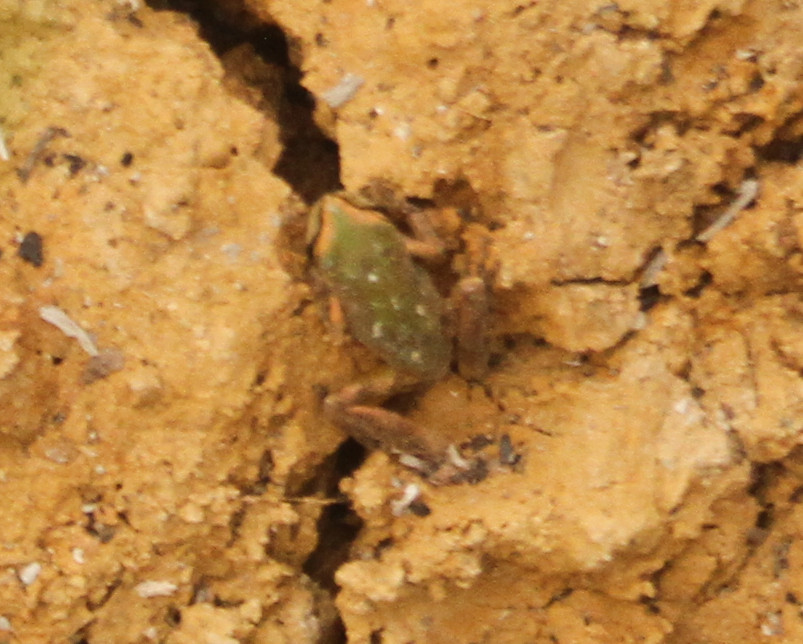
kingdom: Animalia
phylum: Chordata
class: Amphibia
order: Anura
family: Hylidae
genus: Pseudacris
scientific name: Pseudacris regilla
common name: Pacific chorus frog
